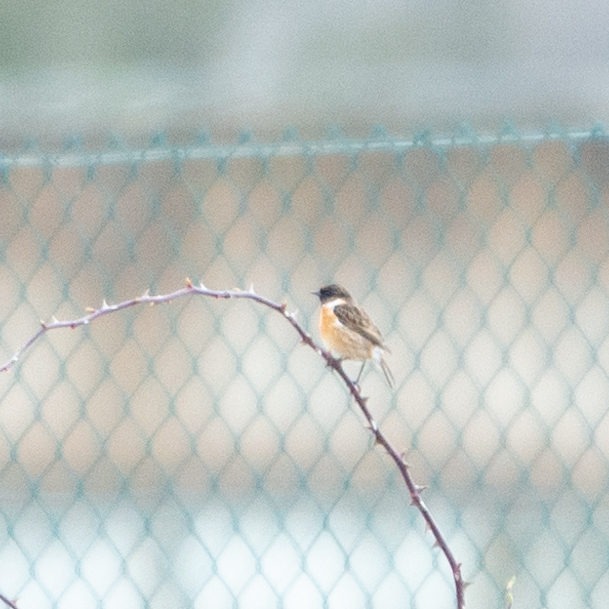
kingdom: Animalia
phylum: Chordata
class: Aves
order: Passeriformes
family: Muscicapidae
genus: Saxicola
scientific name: Saxicola rubicola
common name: European stonechat
